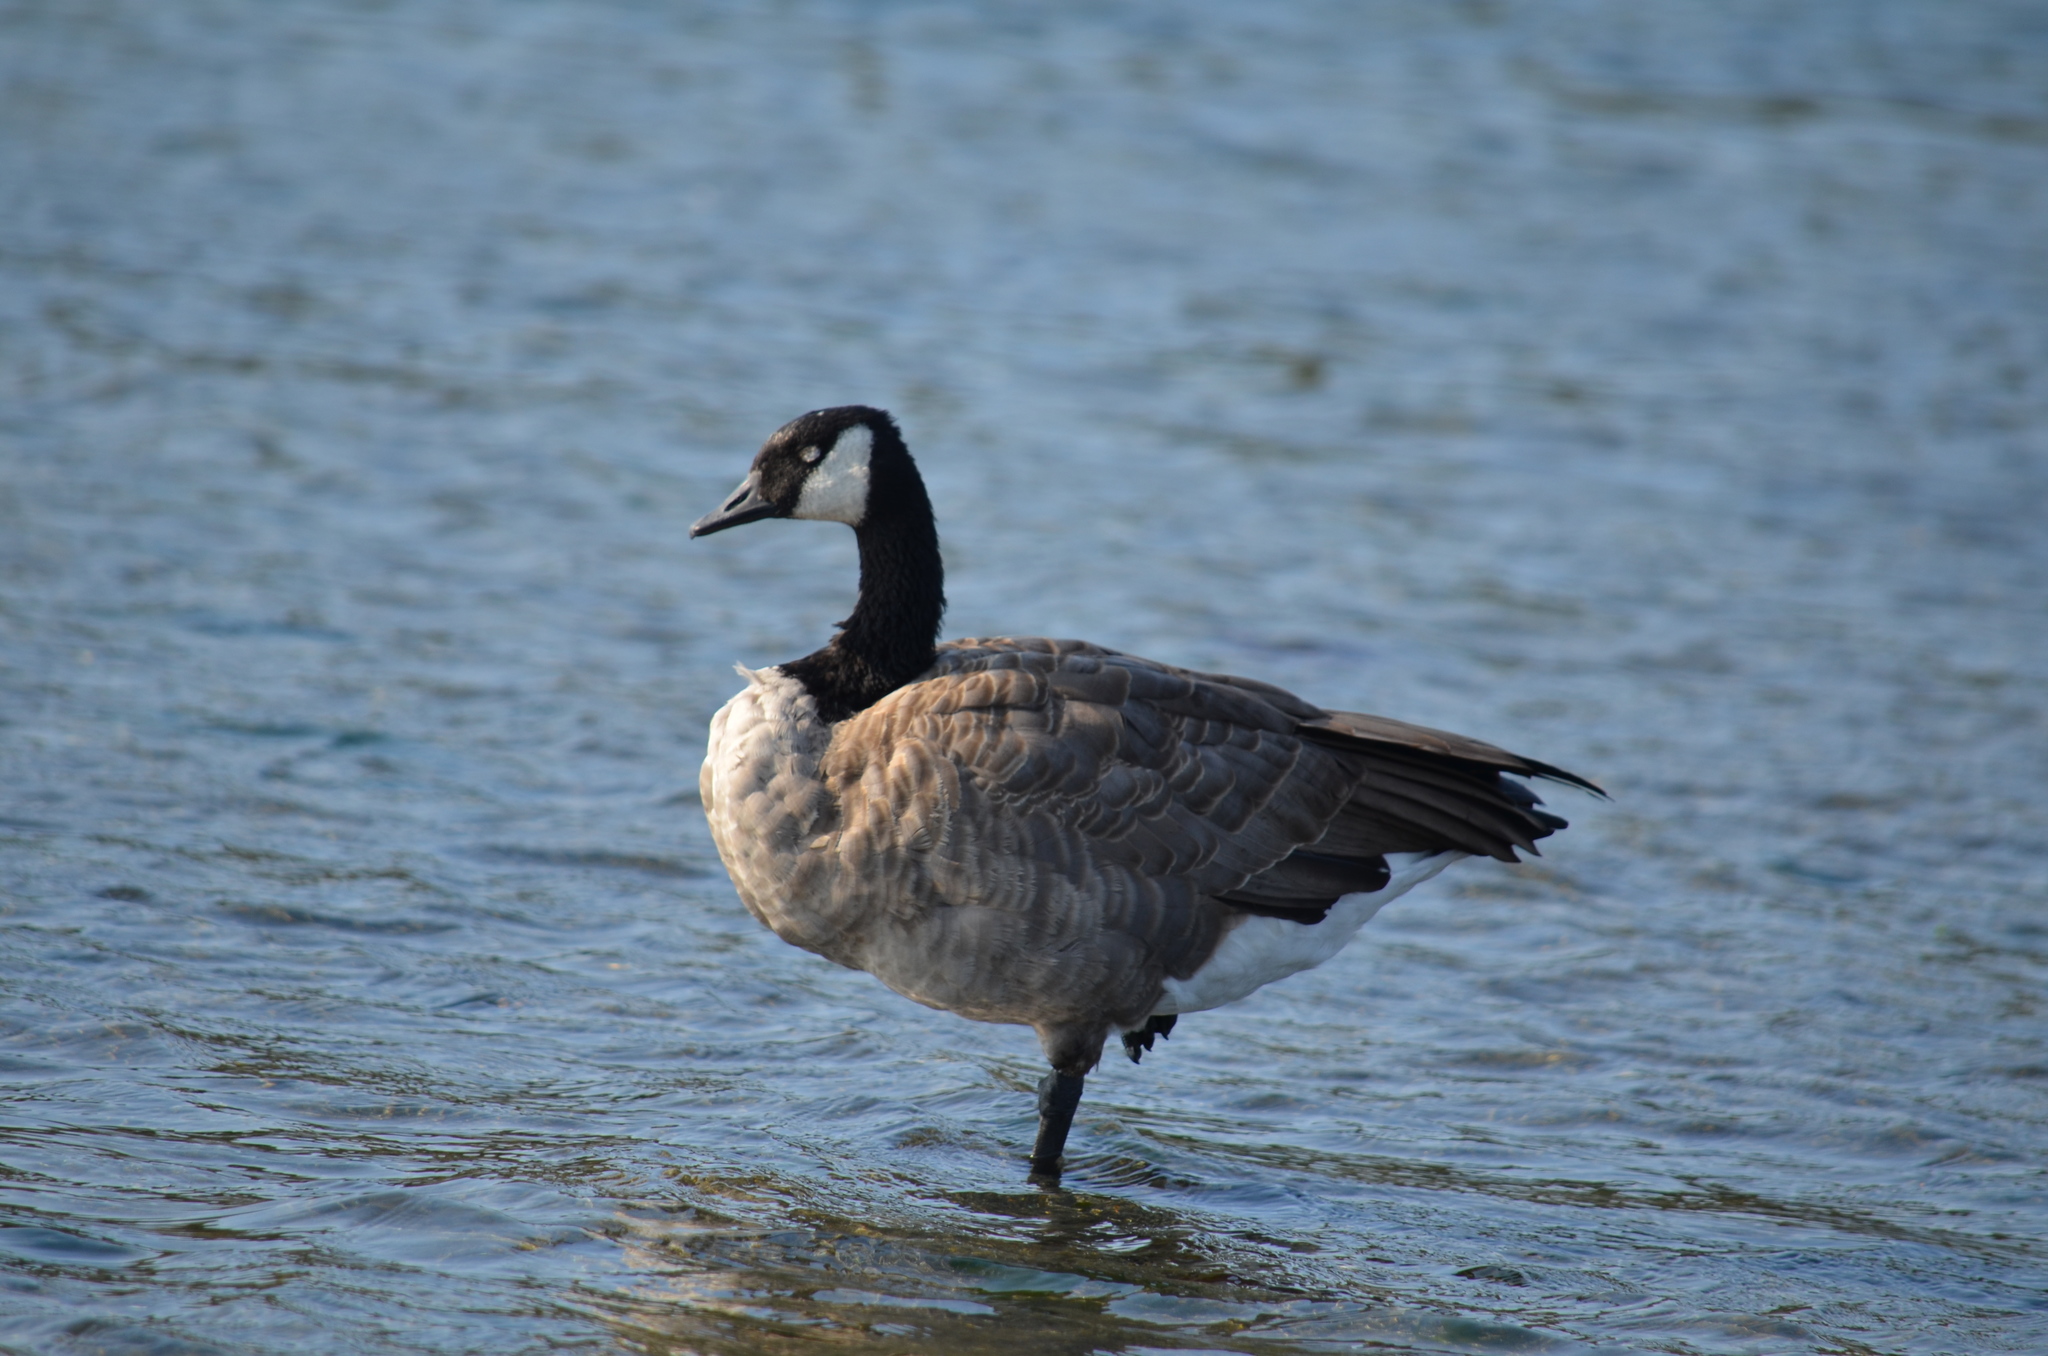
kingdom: Animalia
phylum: Chordata
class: Aves
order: Anseriformes
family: Anatidae
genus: Branta
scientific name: Branta canadensis
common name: Canada goose
